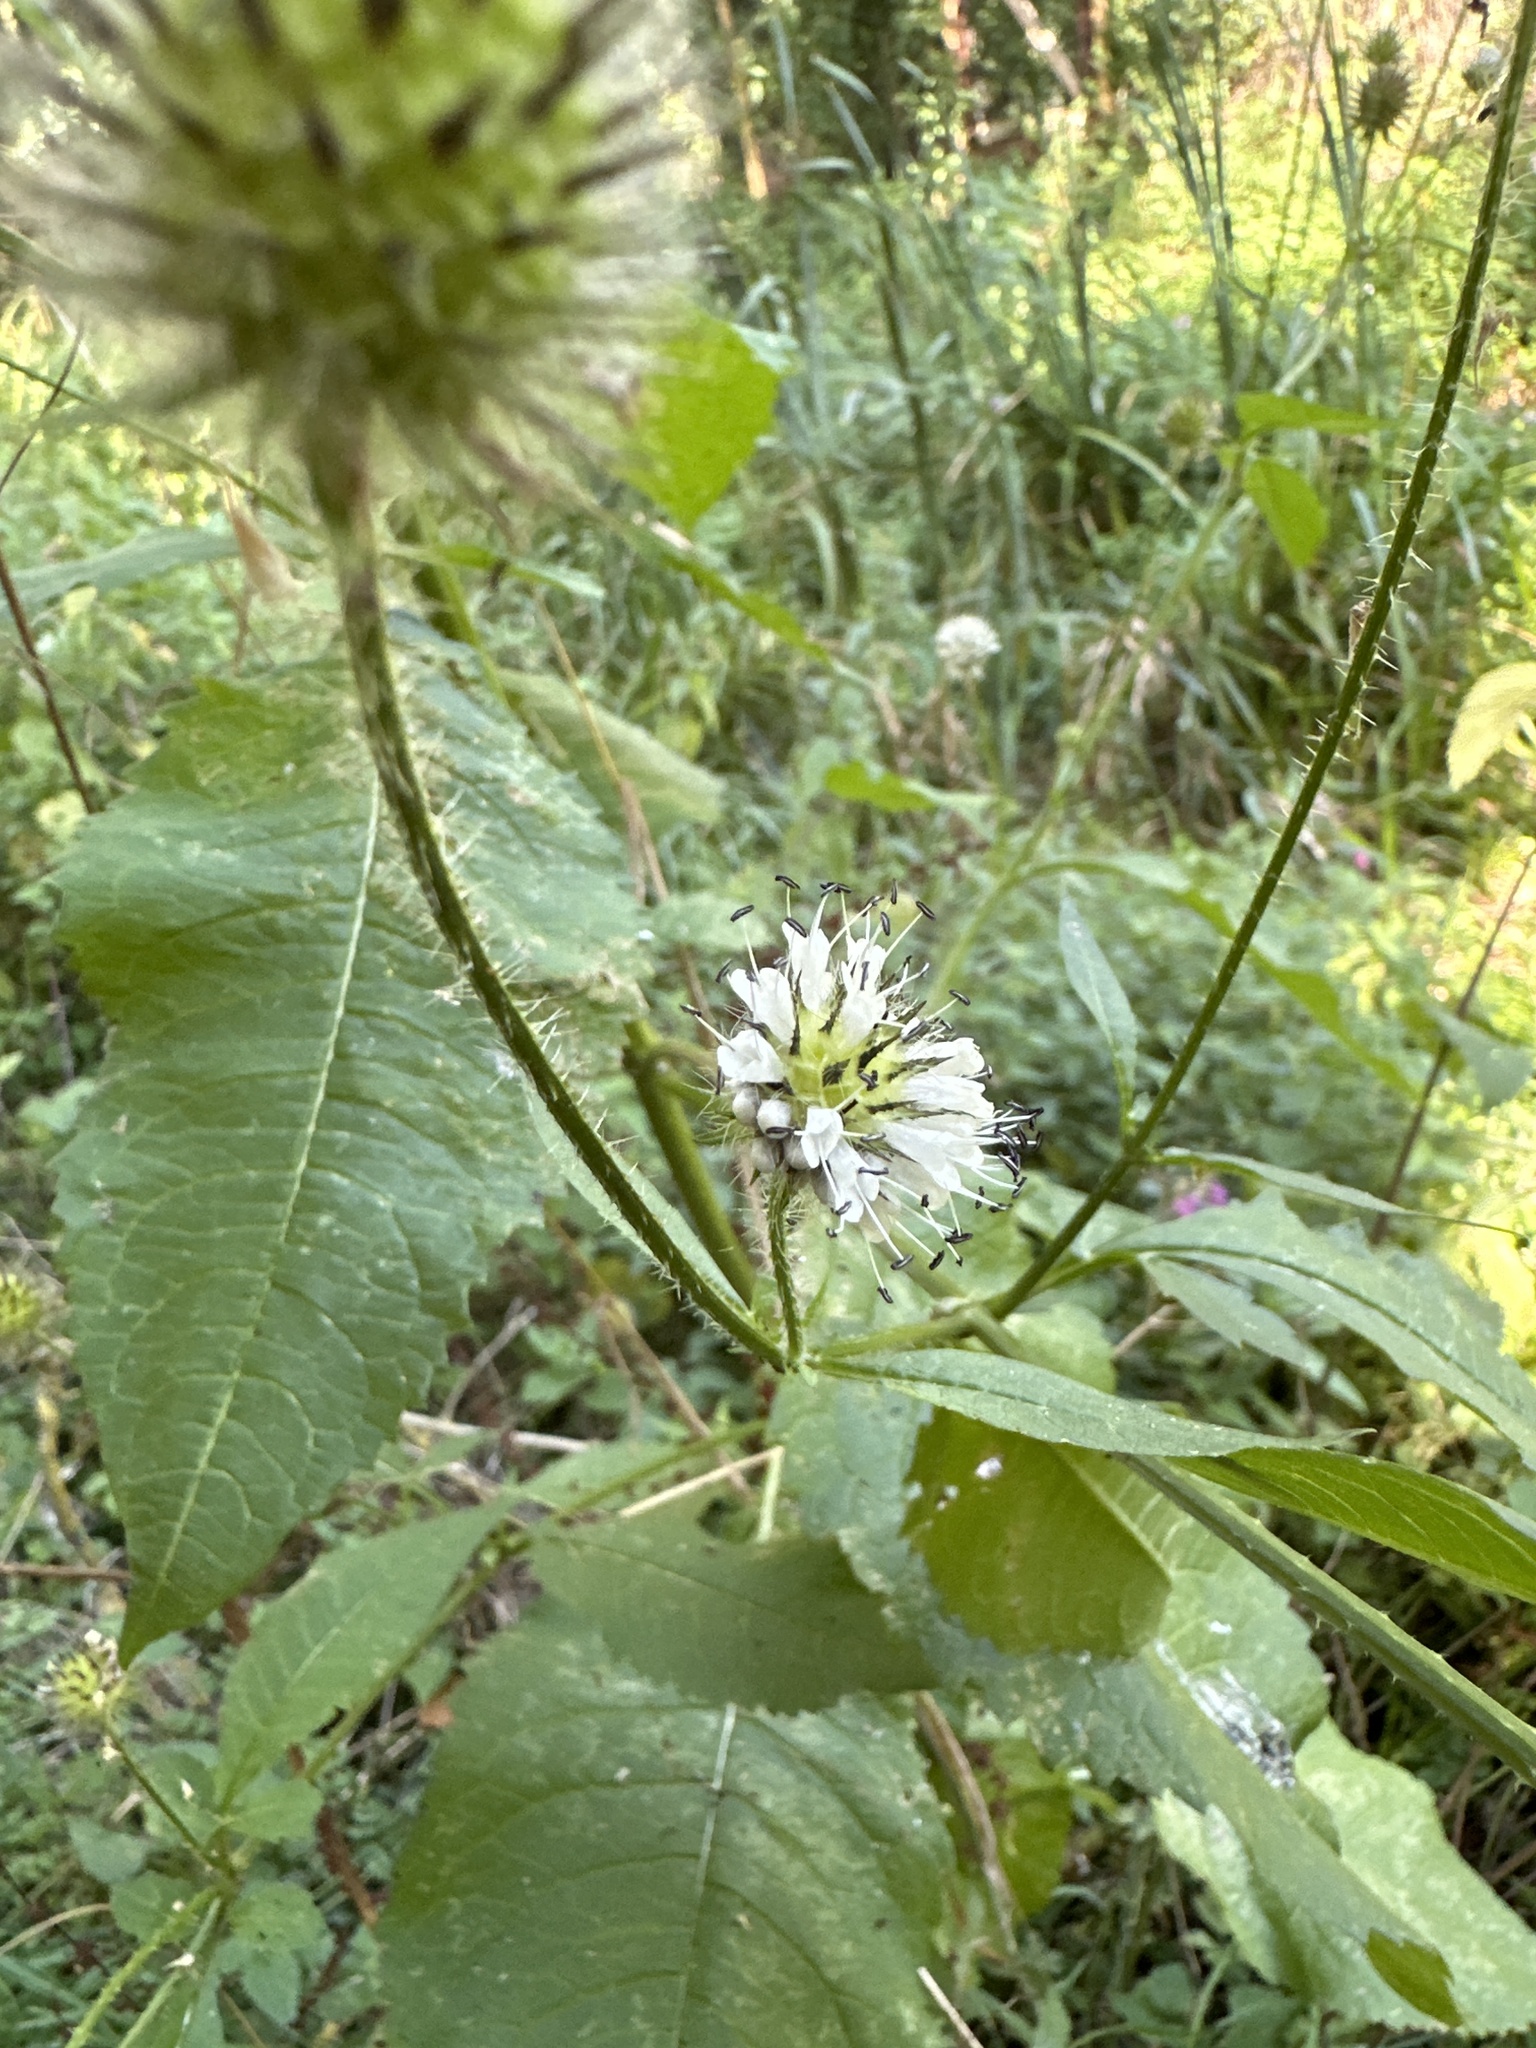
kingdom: Plantae
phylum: Tracheophyta
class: Magnoliopsida
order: Dipsacales
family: Caprifoliaceae
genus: Dipsacus
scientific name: Dipsacus pilosus
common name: Small teasel
